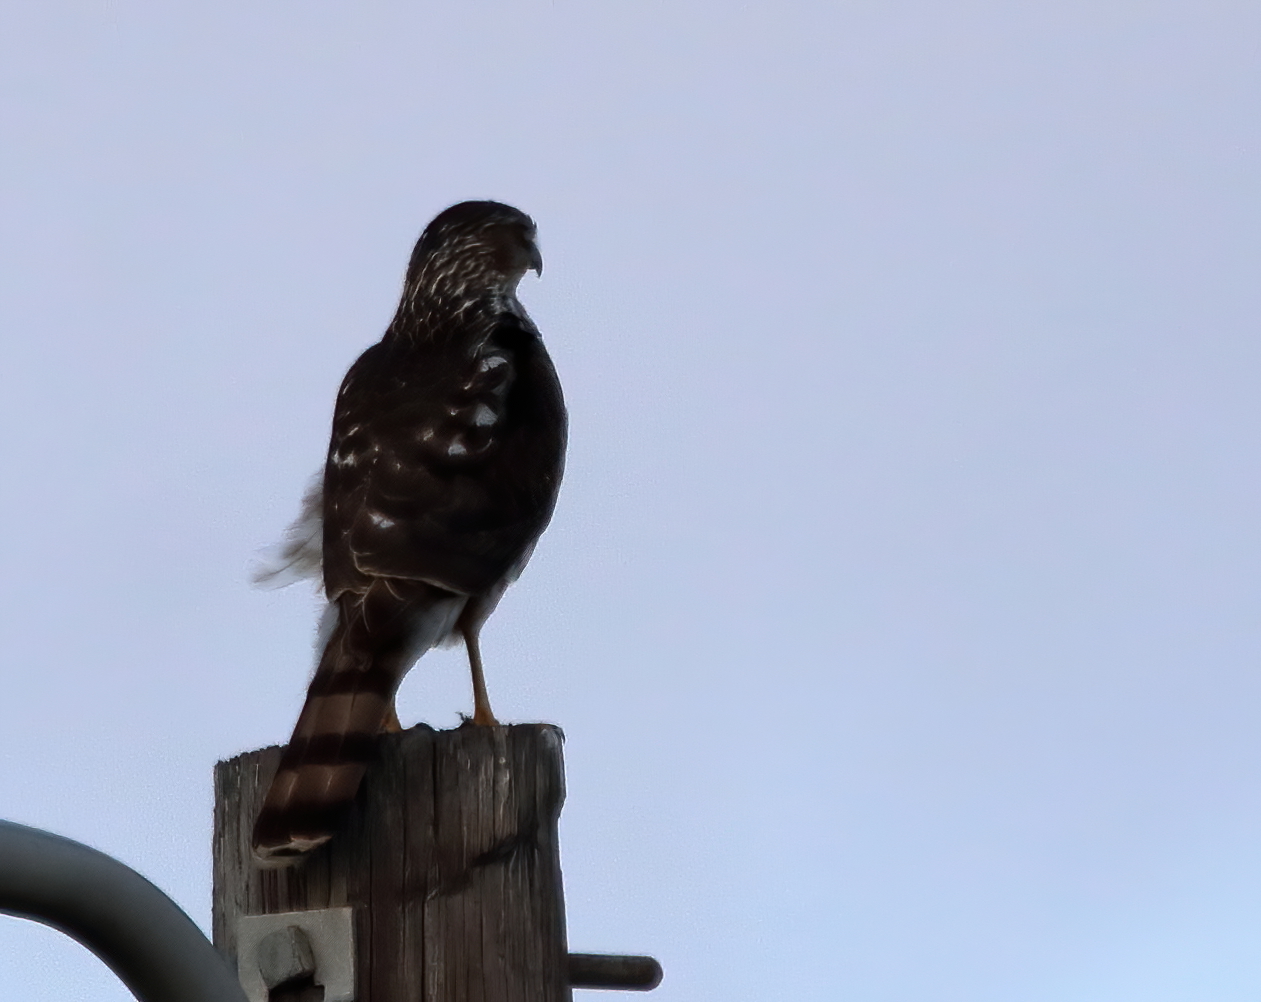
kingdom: Animalia
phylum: Chordata
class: Aves
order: Accipitriformes
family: Accipitridae
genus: Accipiter
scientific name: Accipiter cooperii
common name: Cooper's hawk
